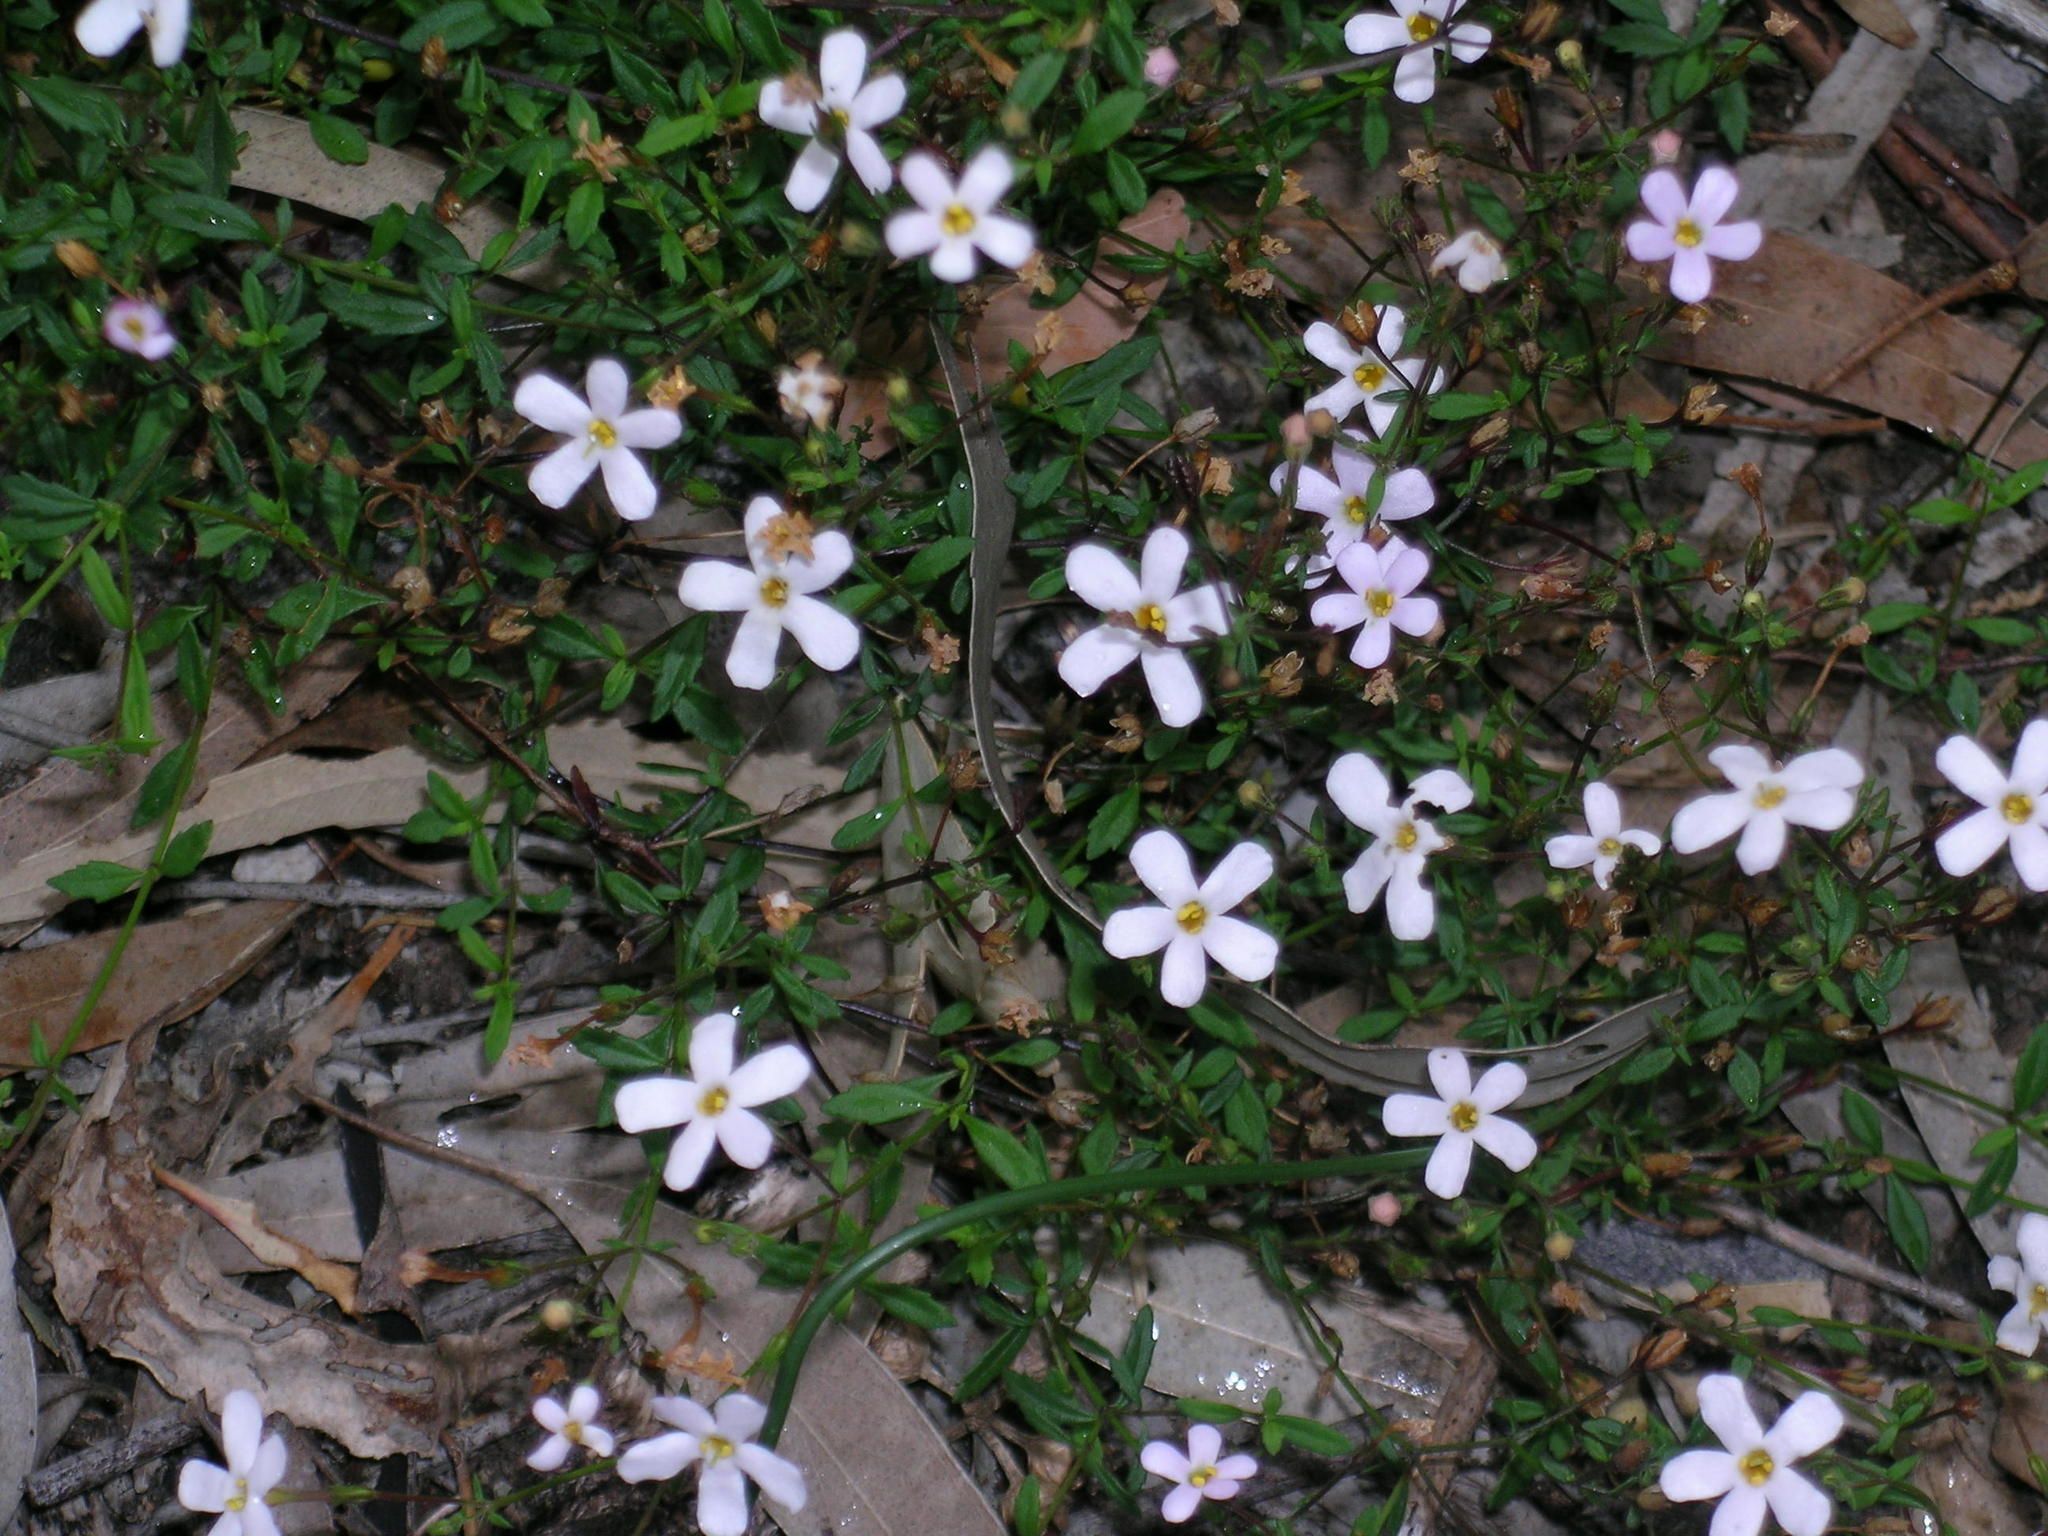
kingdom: Plantae
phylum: Tracheophyta
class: Magnoliopsida
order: Lamiales
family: Scrophulariaceae
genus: Chaenostoma
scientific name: Chaenostoma langebergense
